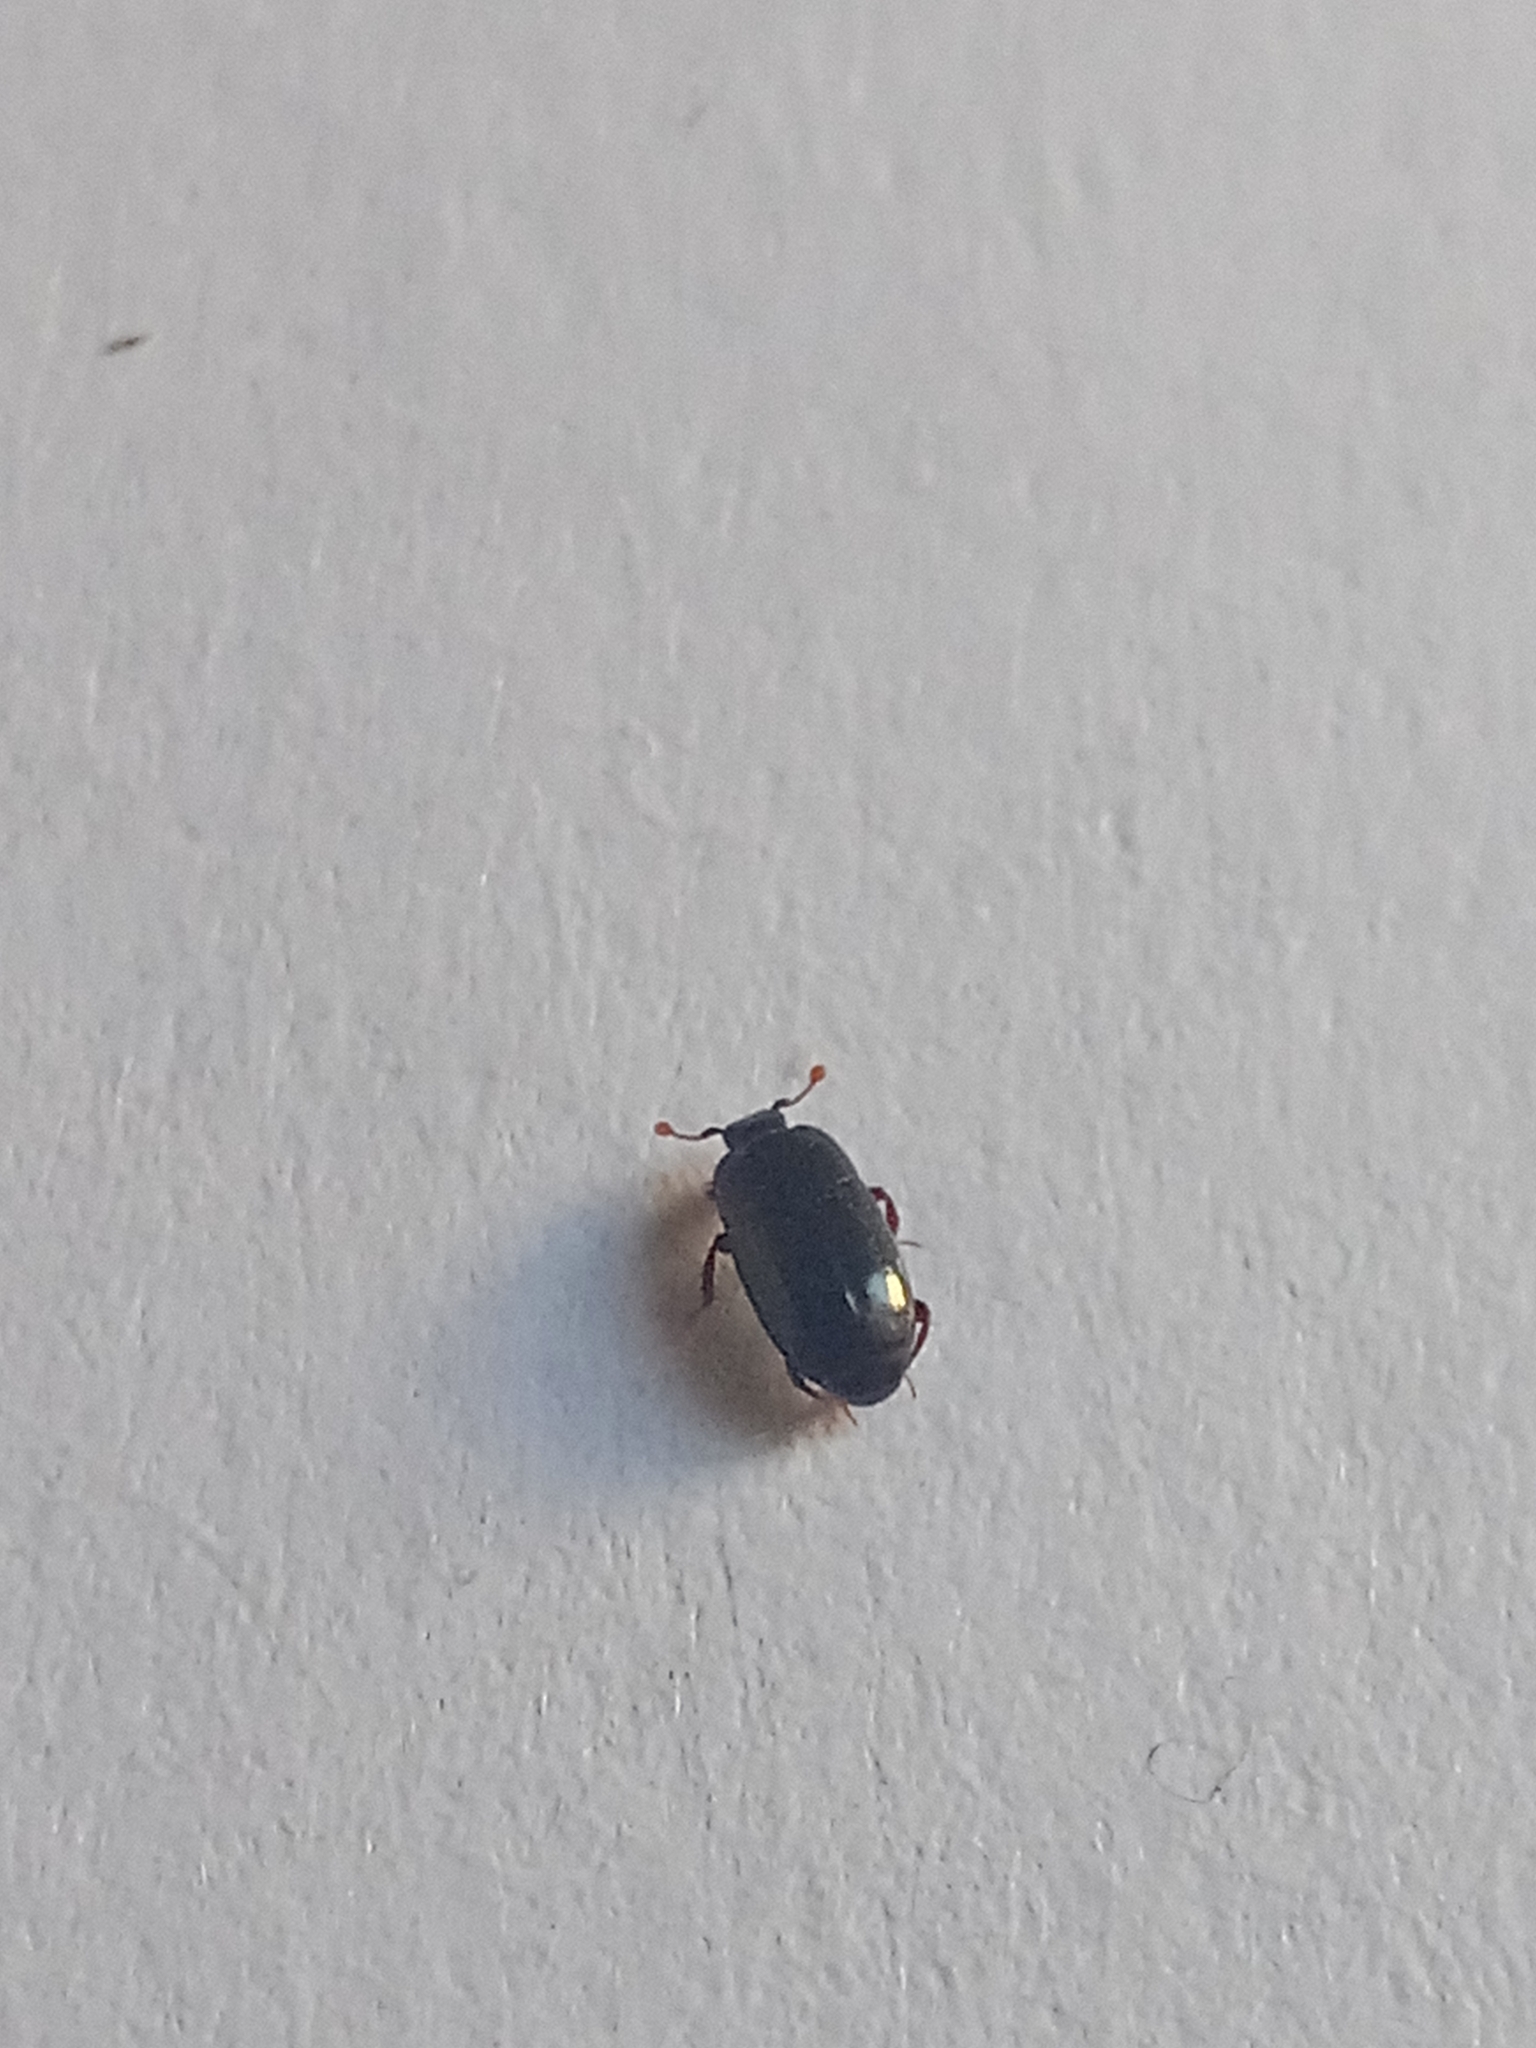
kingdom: Animalia
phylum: Arthropoda
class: Insecta
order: Coleoptera
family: Histeridae
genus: Paromalus
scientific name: Paromalus parallelepipedus
